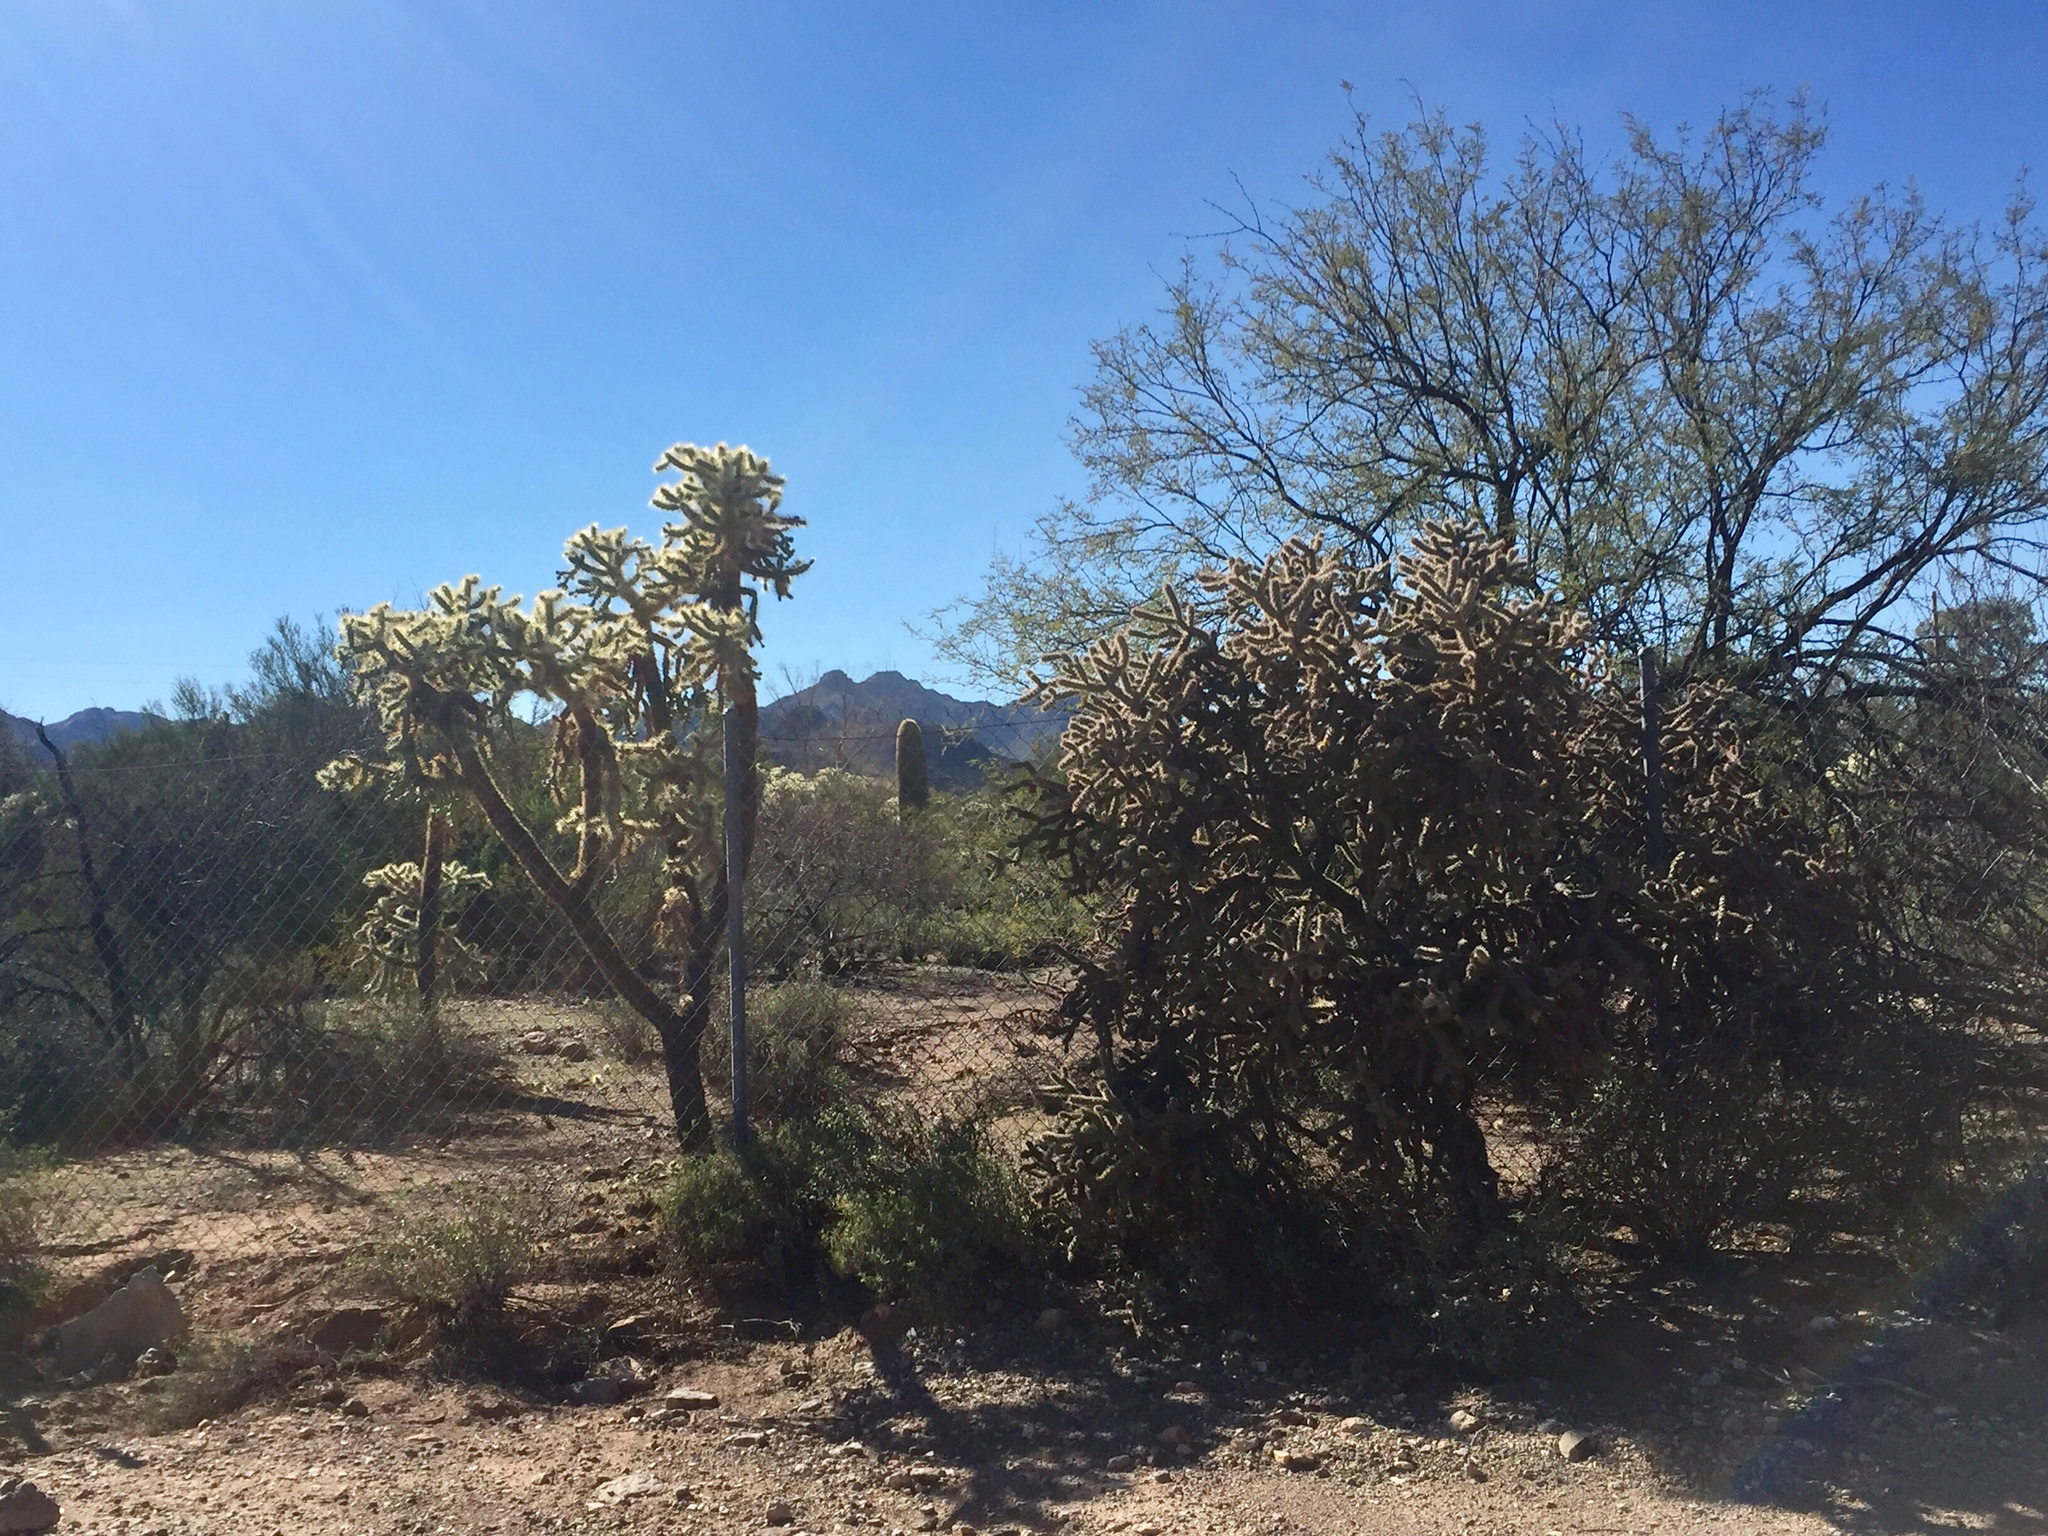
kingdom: Plantae
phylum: Tracheophyta
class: Magnoliopsida
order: Caryophyllales
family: Cactaceae
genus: Cylindropuntia
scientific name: Cylindropuntia fulgida
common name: Jumping cholla
